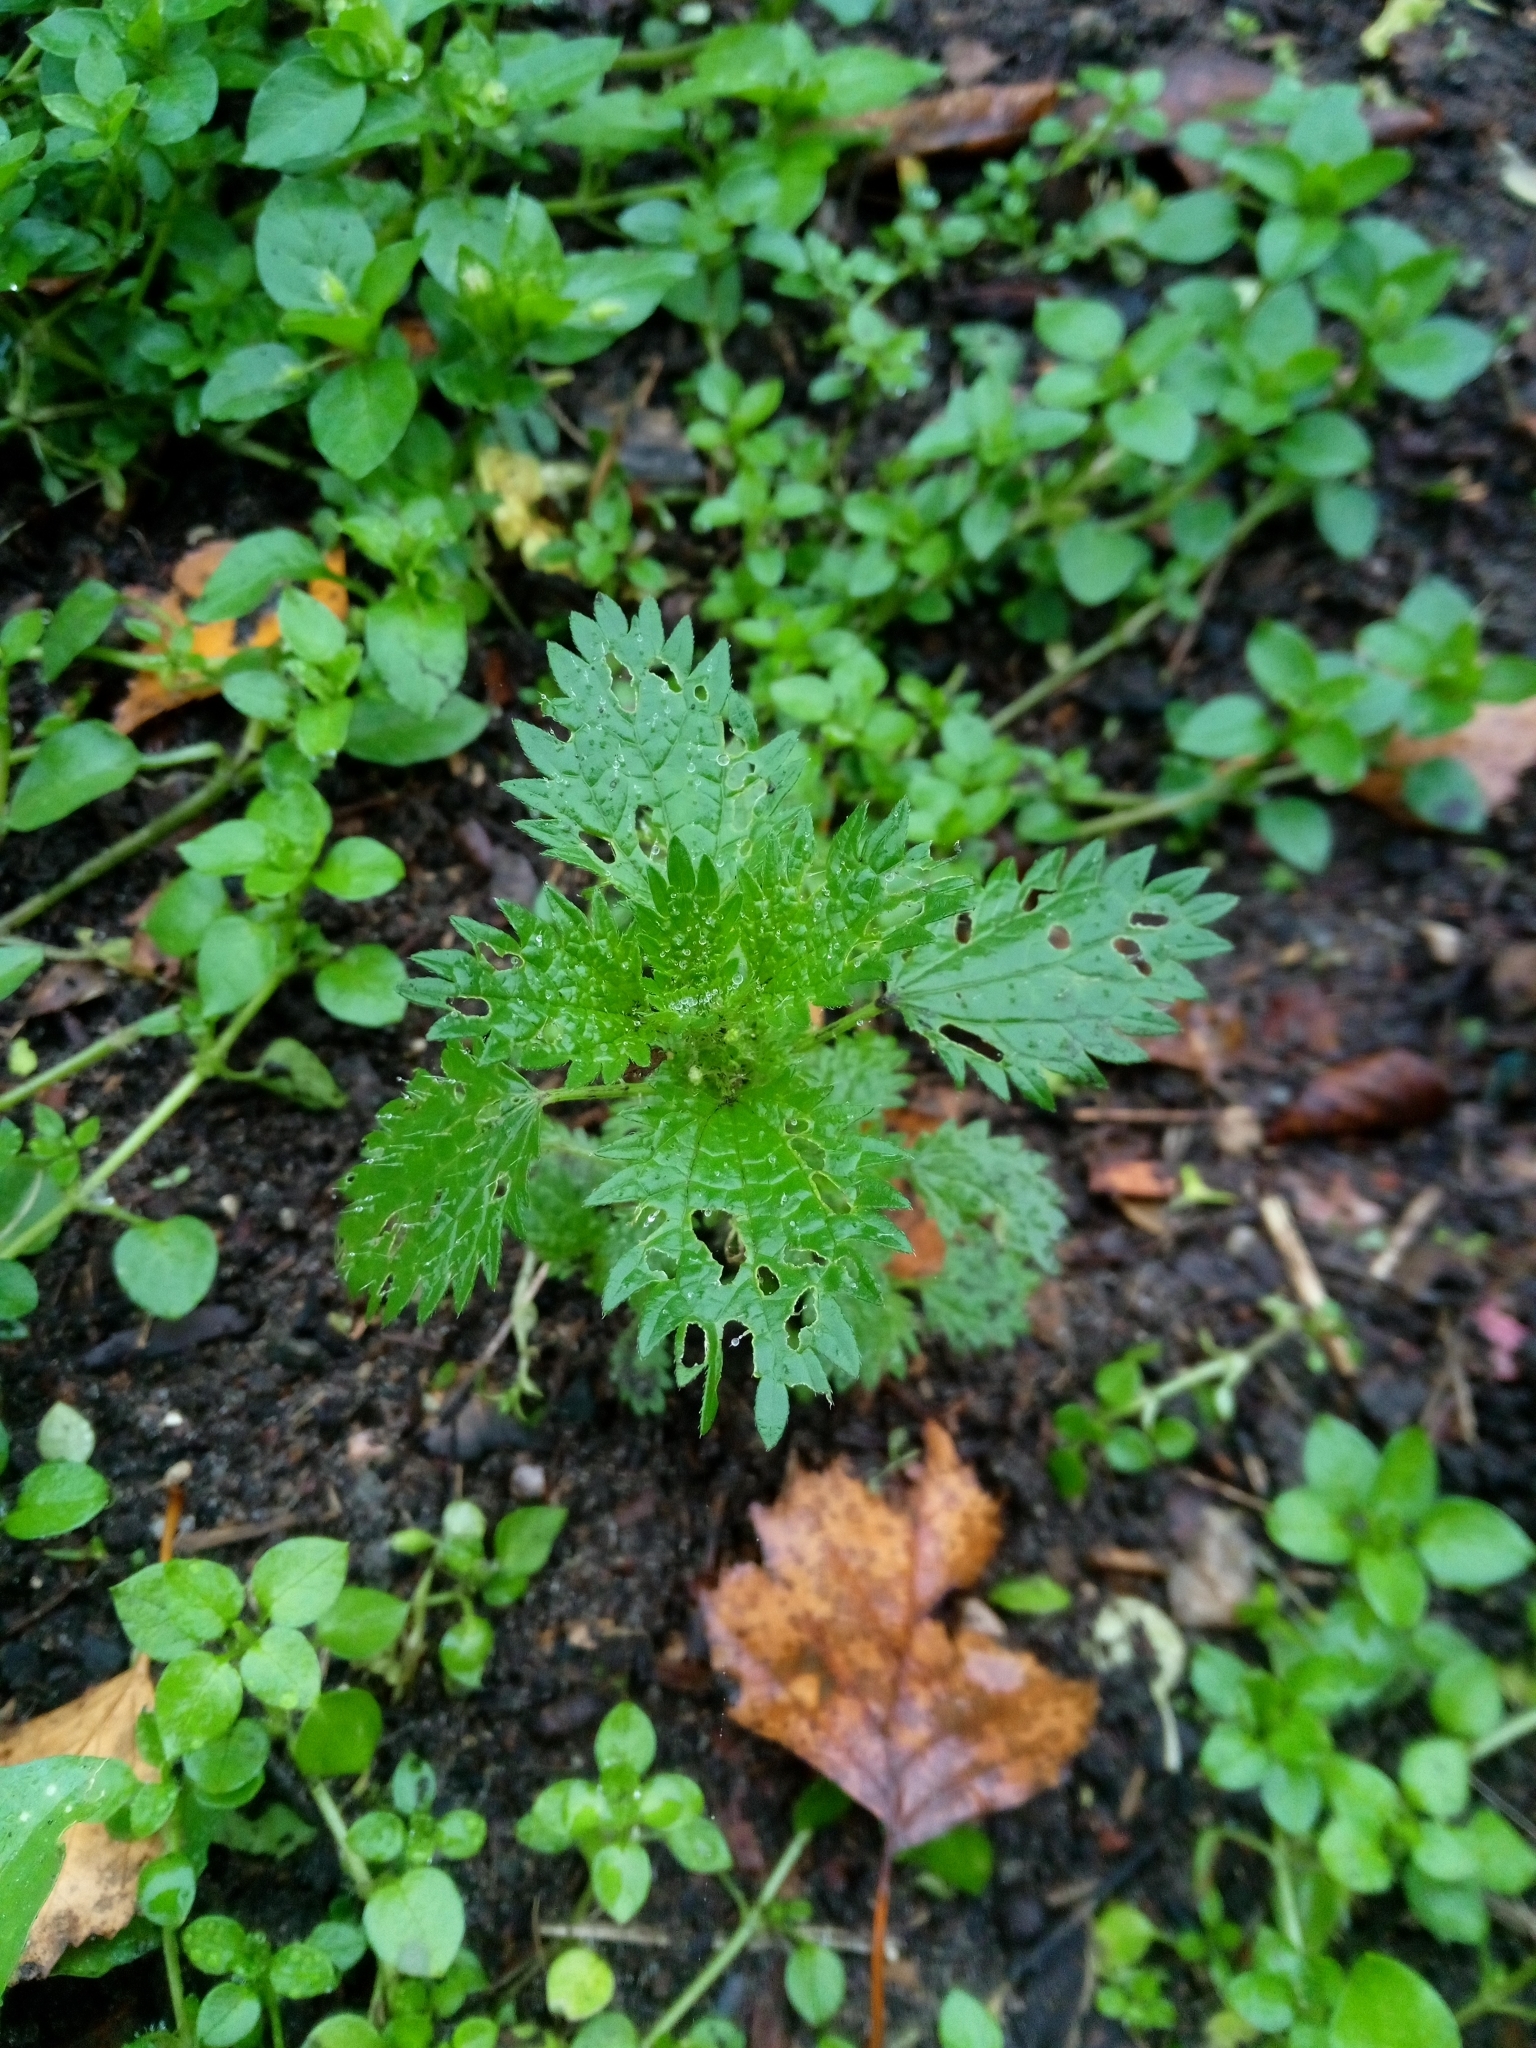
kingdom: Plantae
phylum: Tracheophyta
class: Magnoliopsida
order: Rosales
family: Urticaceae
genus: Urtica
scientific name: Urtica urens
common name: Dwarf nettle
